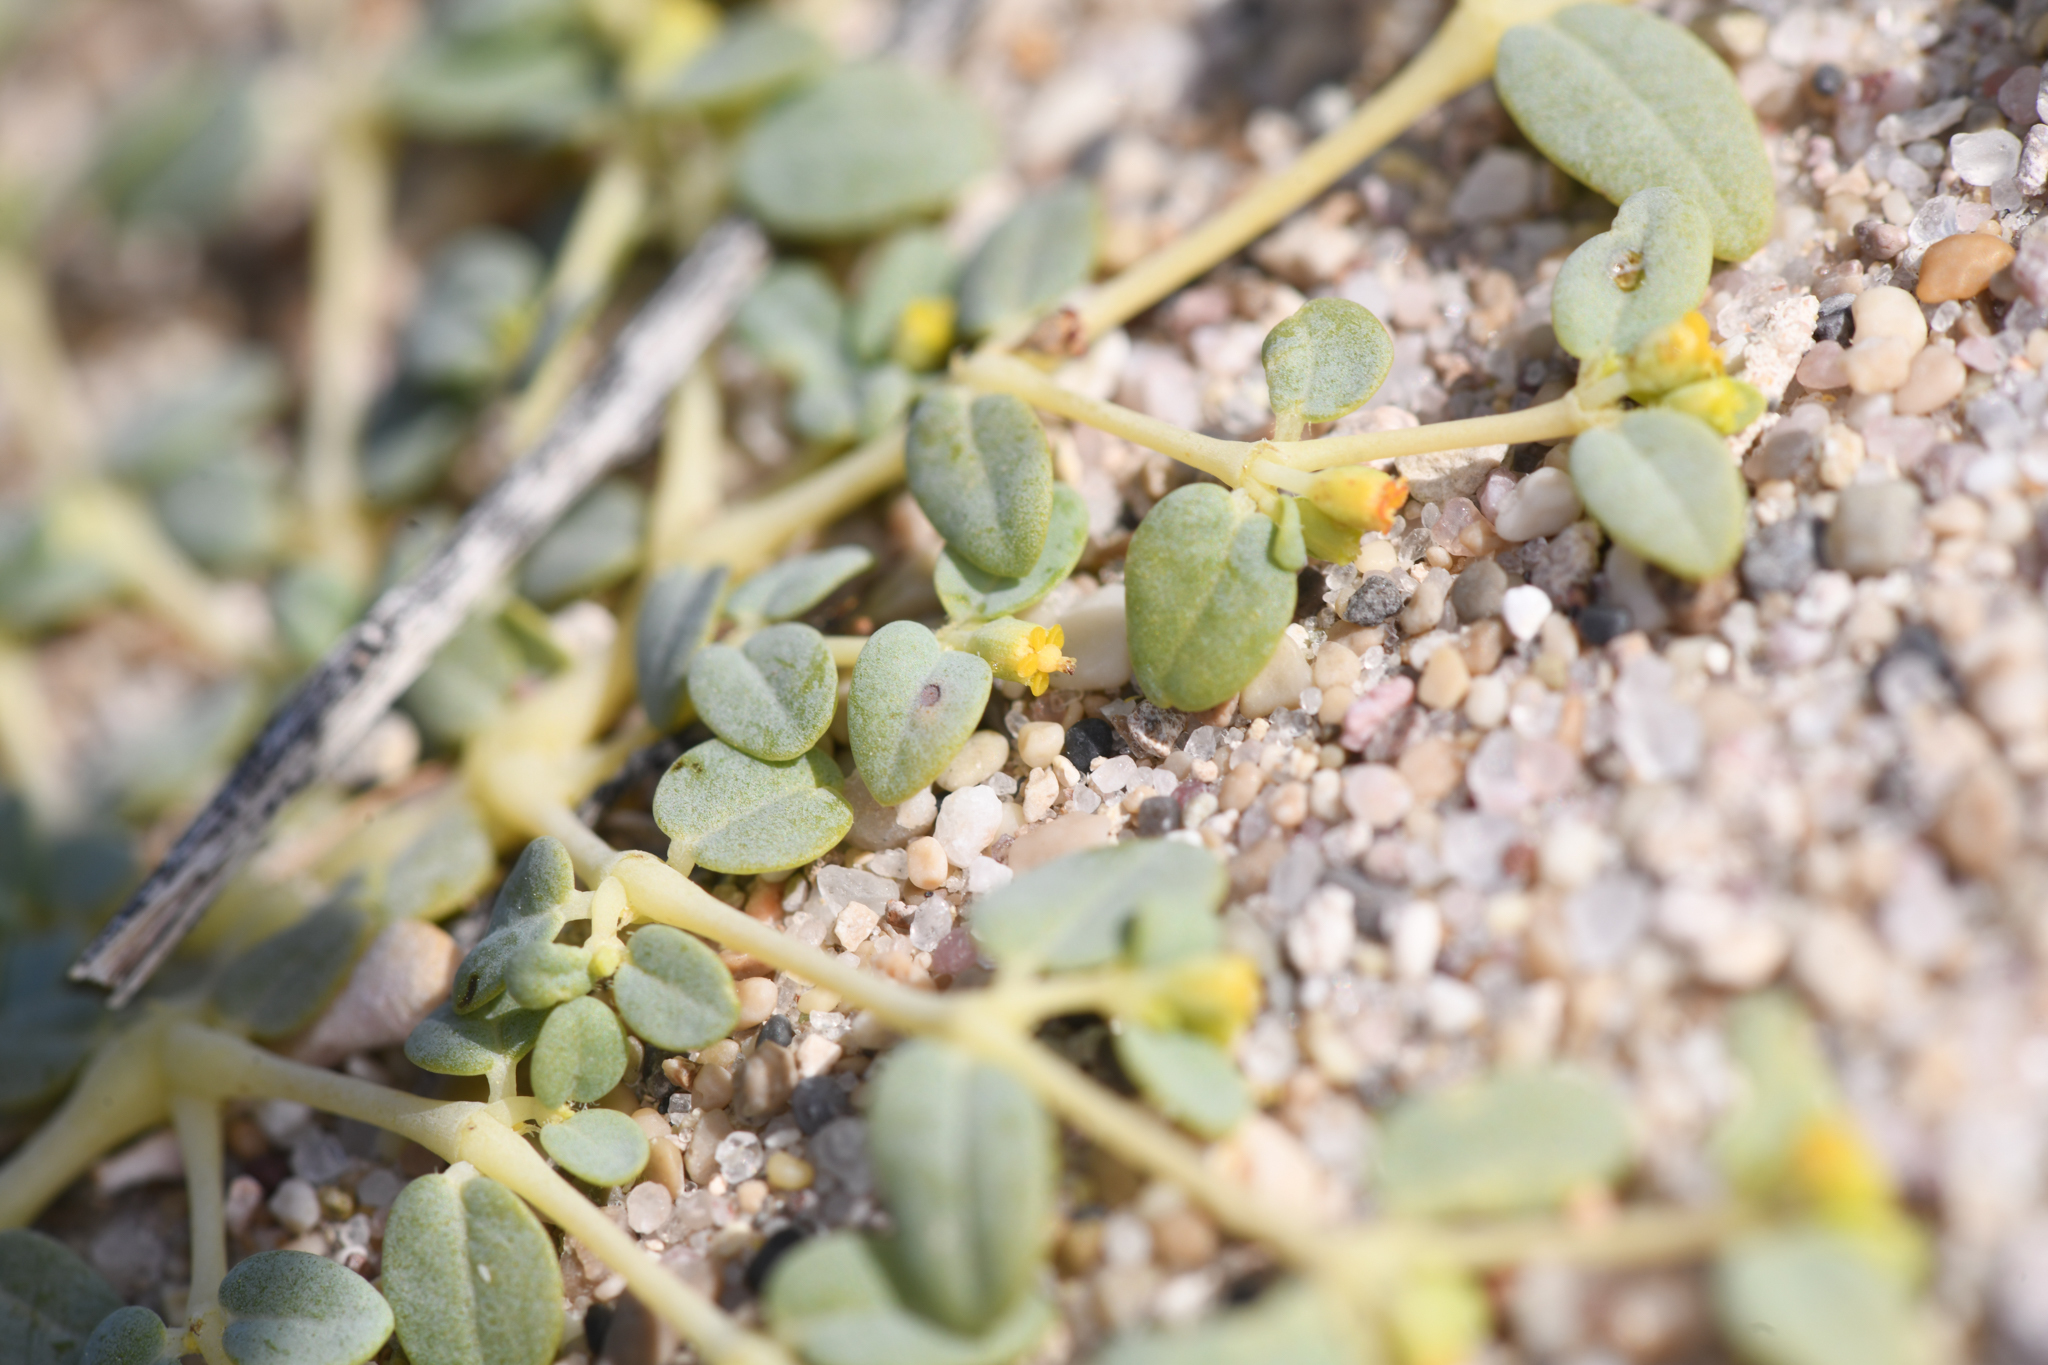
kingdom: Plantae
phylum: Tracheophyta
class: Magnoliopsida
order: Malpighiales
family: Euphorbiaceae
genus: Euphorbia
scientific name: Euphorbia ocellata
